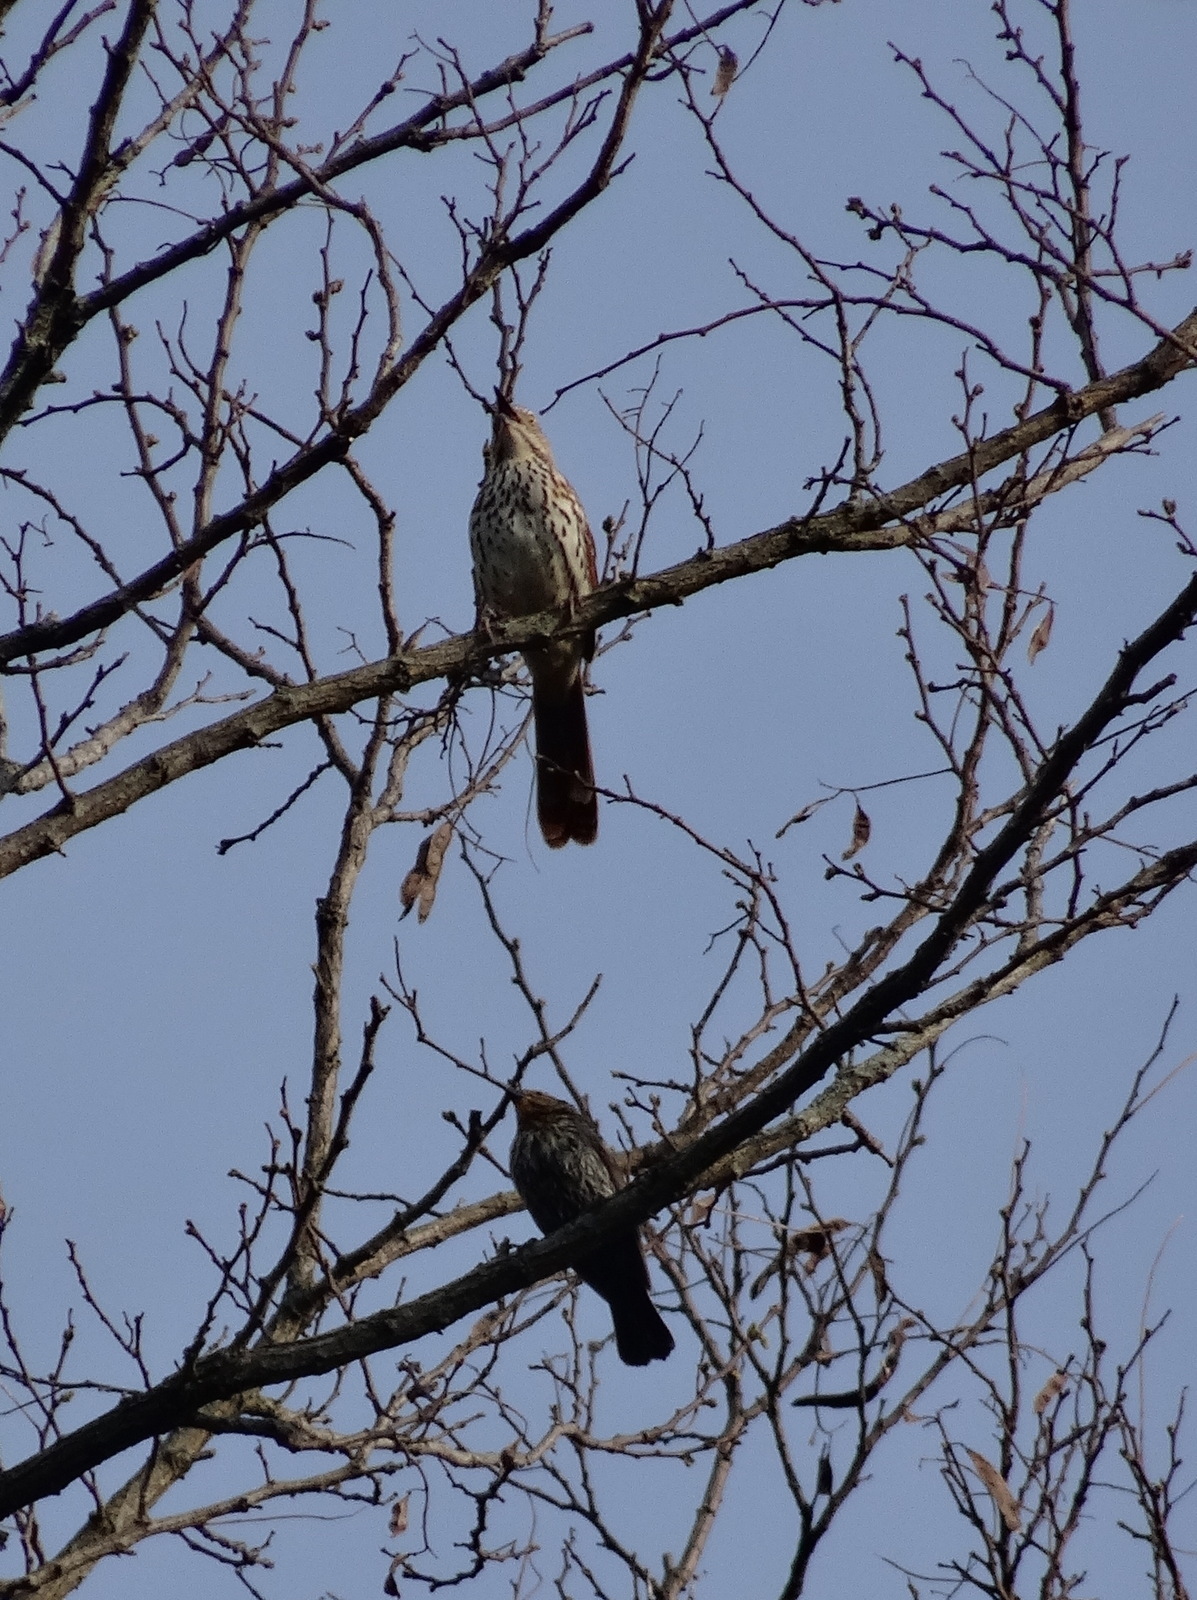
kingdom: Animalia
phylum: Chordata
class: Aves
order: Passeriformes
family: Mimidae
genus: Toxostoma
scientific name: Toxostoma rufum
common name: Brown thrasher
